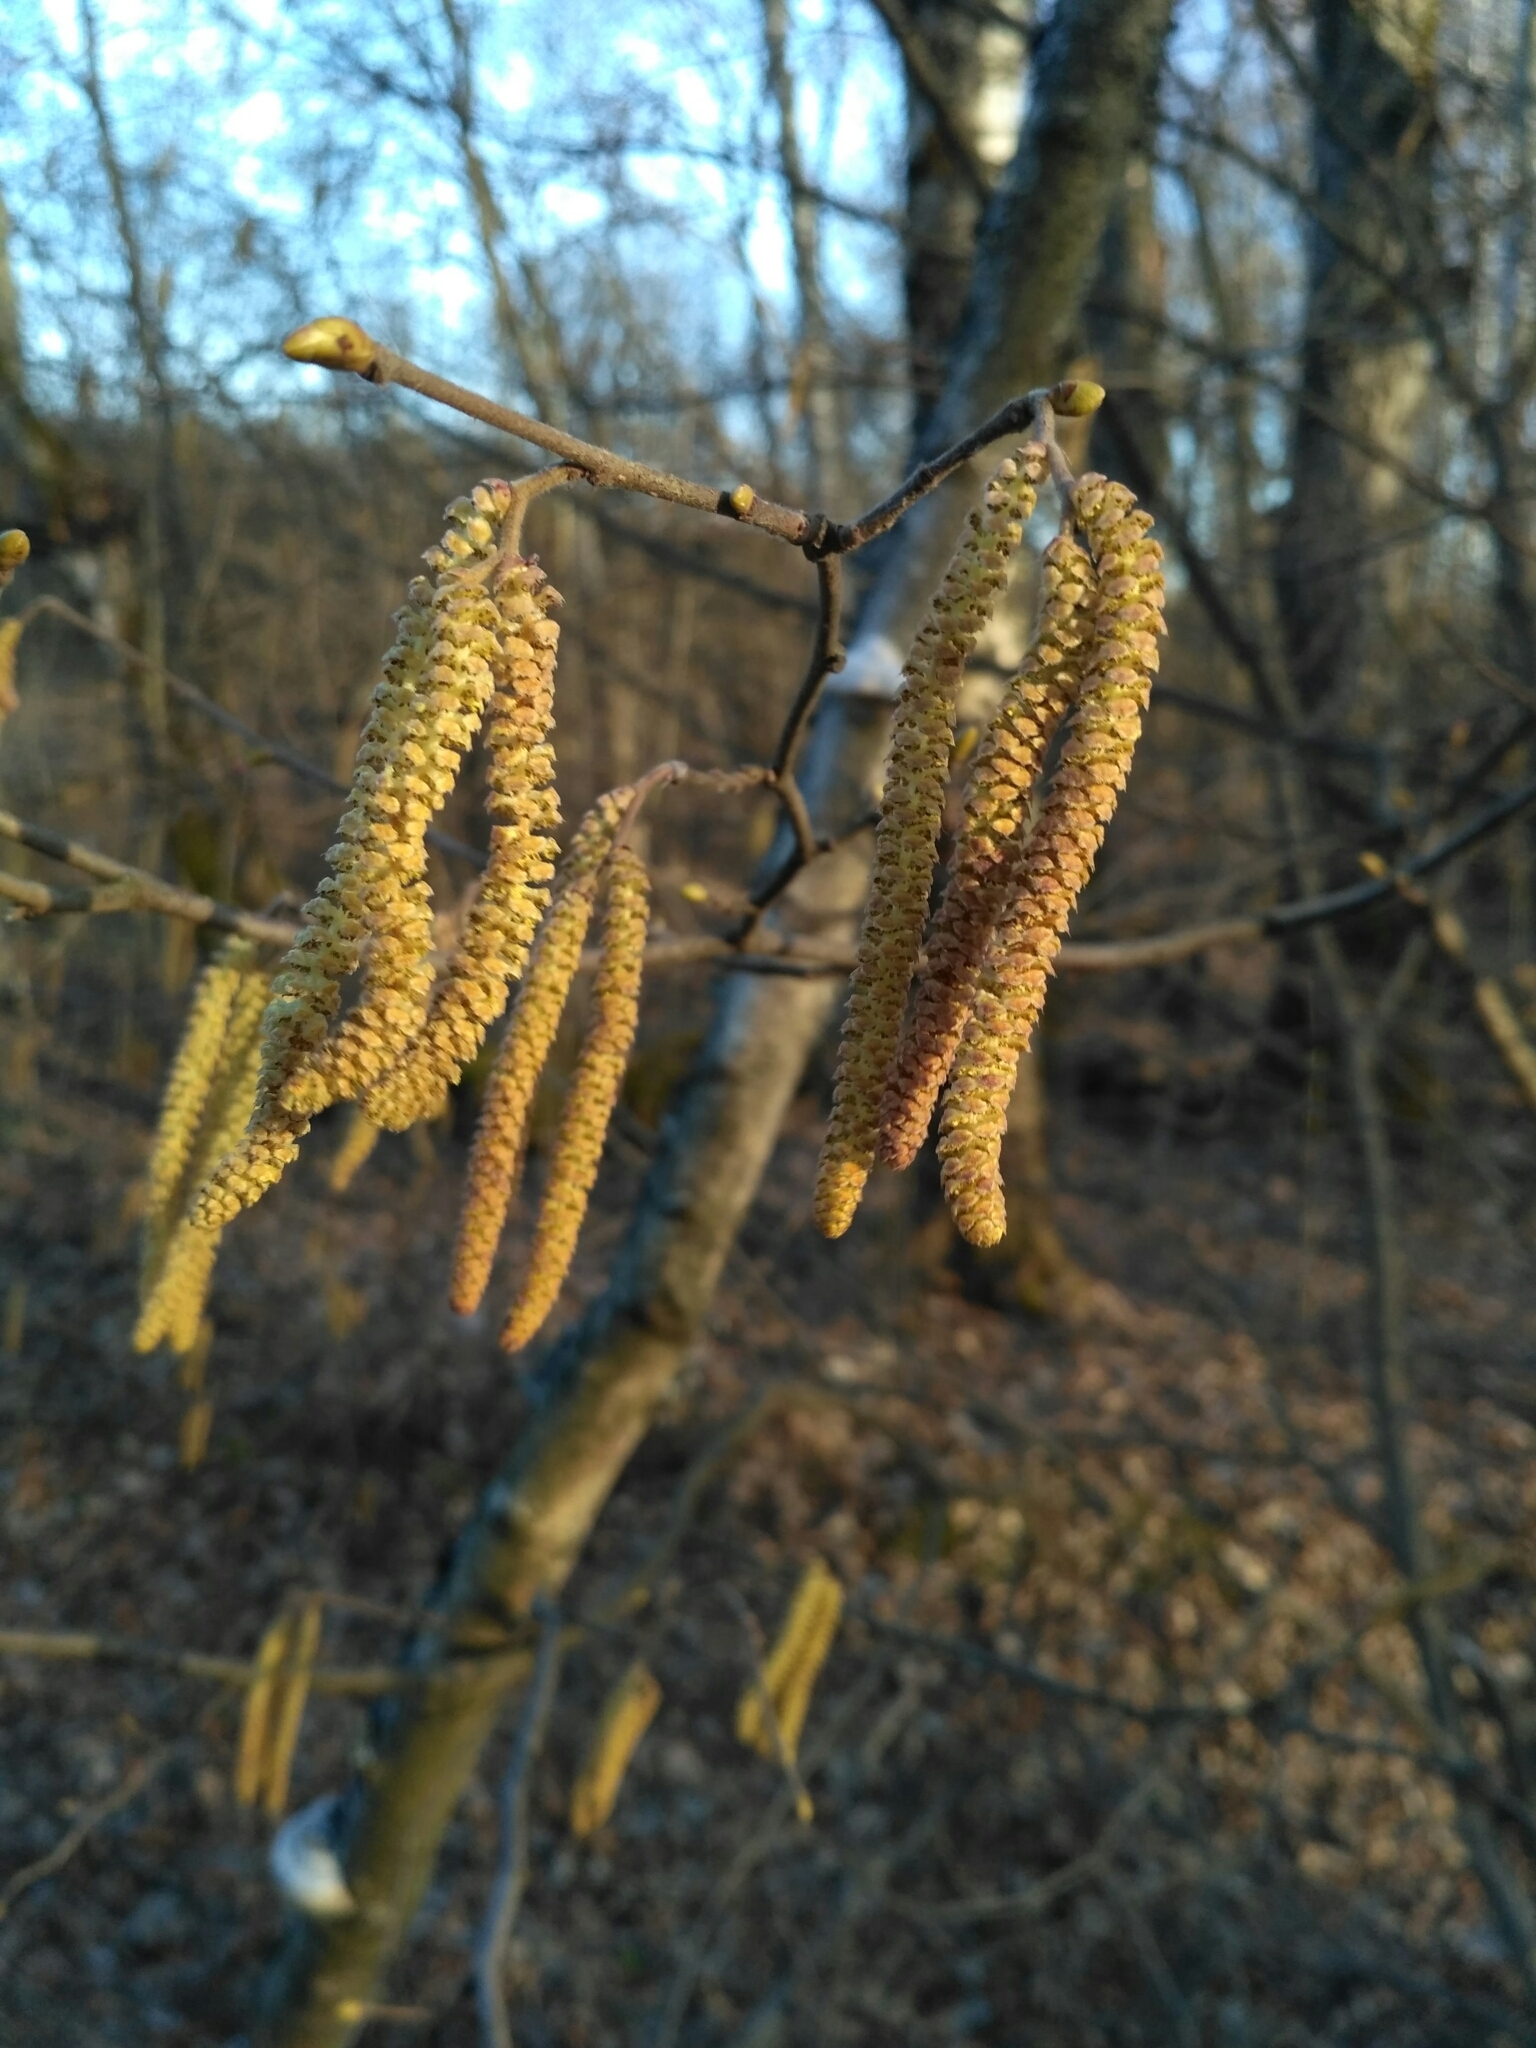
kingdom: Plantae
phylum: Tracheophyta
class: Magnoliopsida
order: Fagales
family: Betulaceae
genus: Corylus
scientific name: Corylus avellana
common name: European hazel
